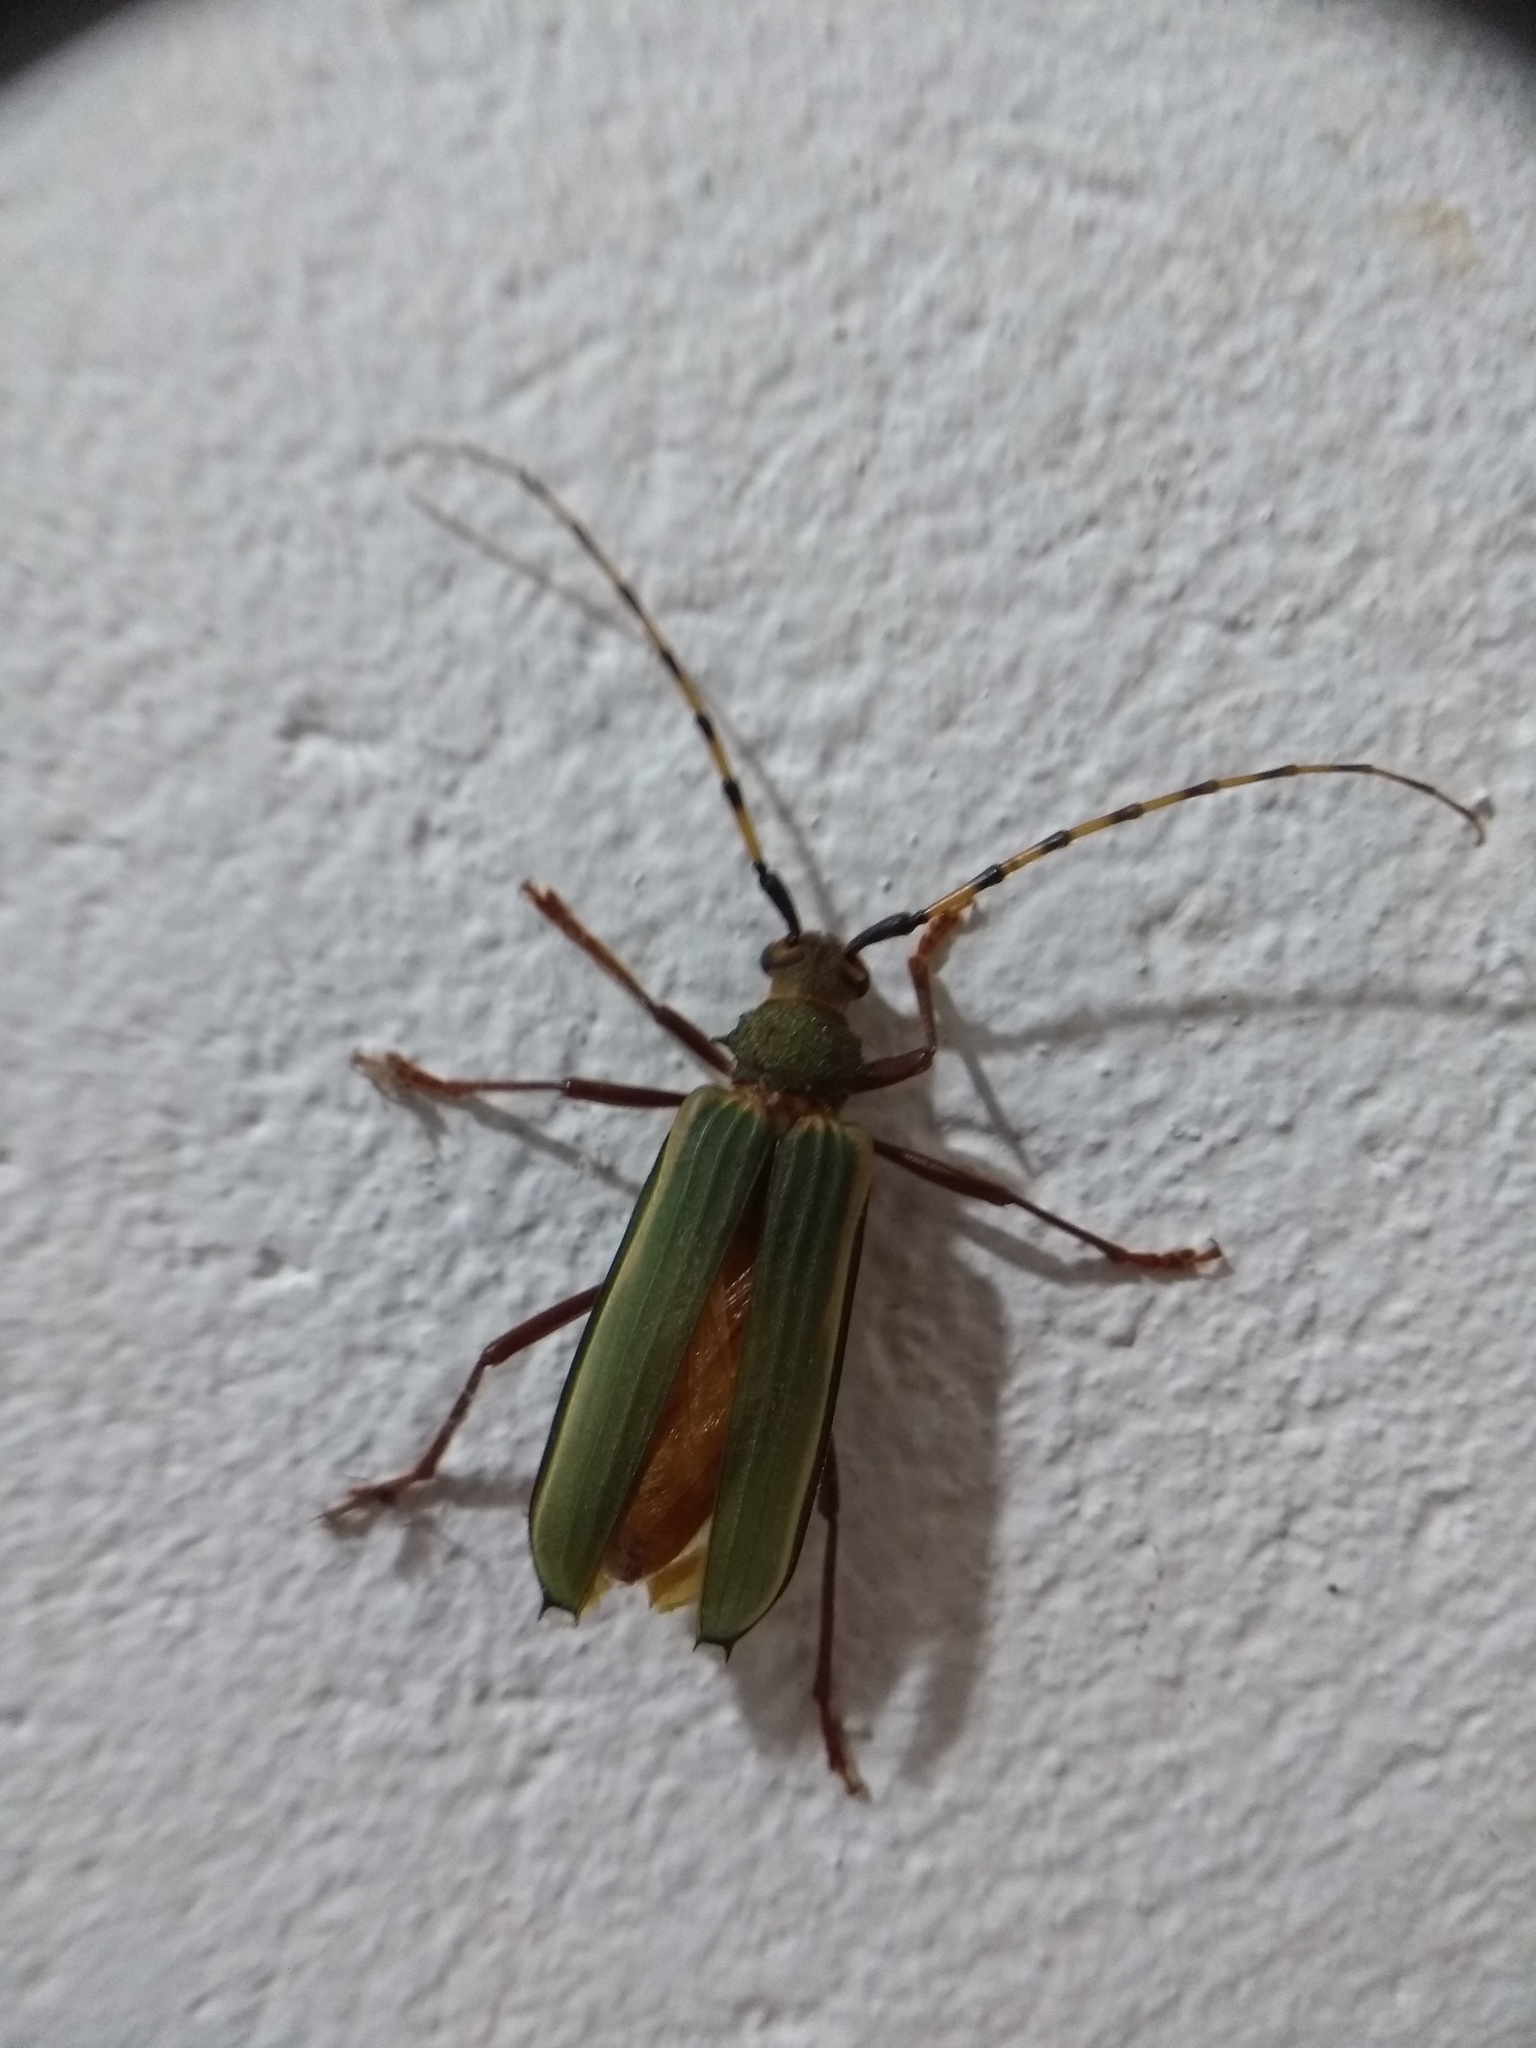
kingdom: Animalia
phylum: Arthropoda
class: Insecta
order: Coleoptera
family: Cerambycidae
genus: Chlorida
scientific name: Chlorida costata
